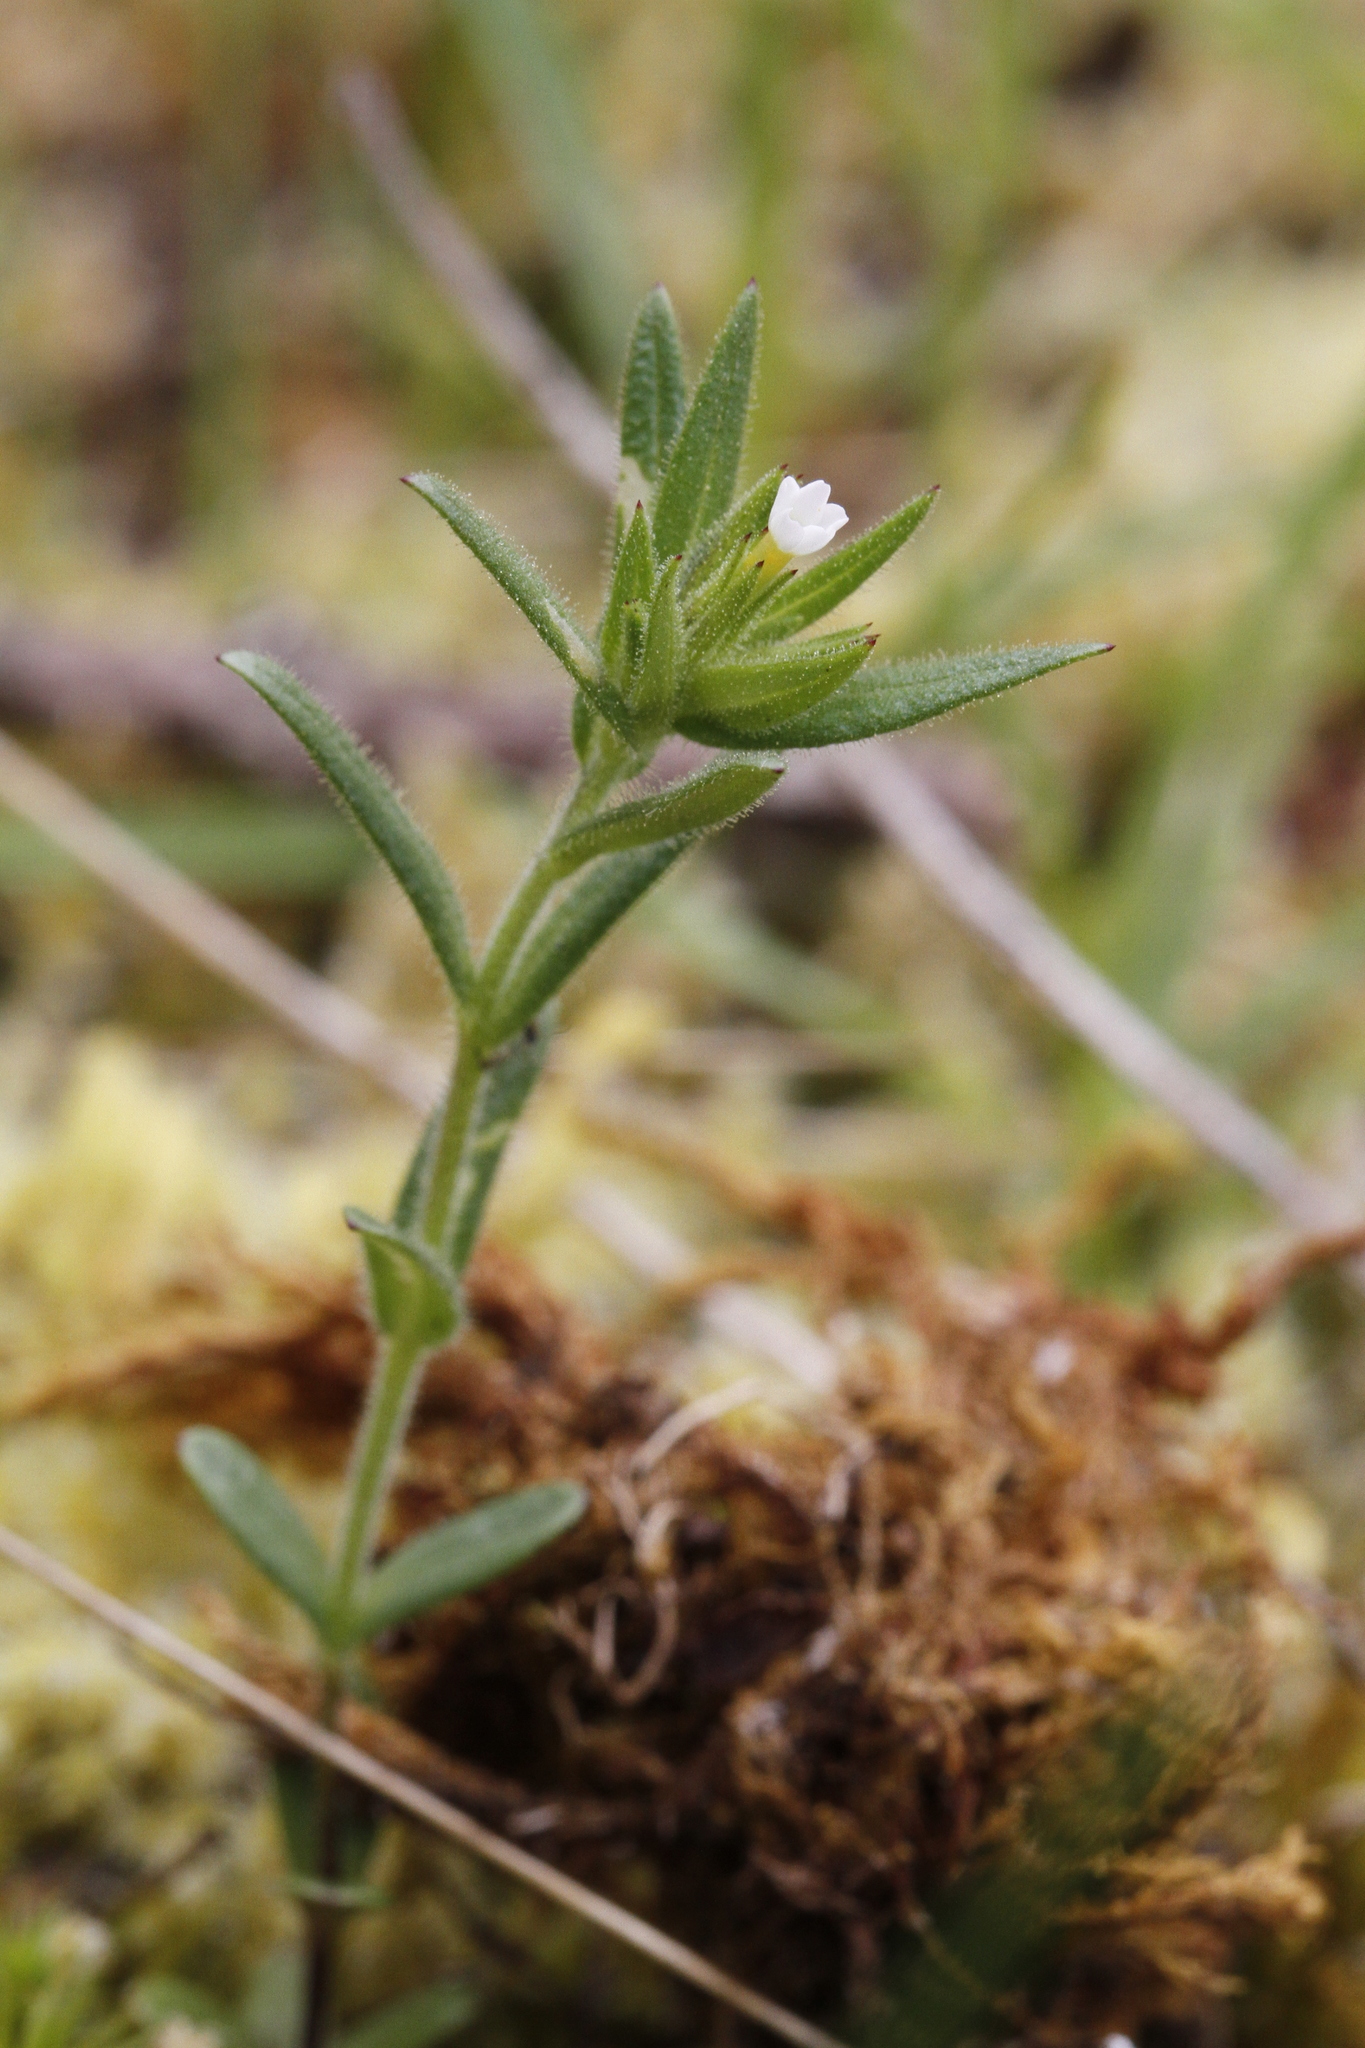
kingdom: Plantae
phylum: Tracheophyta
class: Magnoliopsida
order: Ericales
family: Polemoniaceae
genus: Phlox
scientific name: Phlox gracilis
